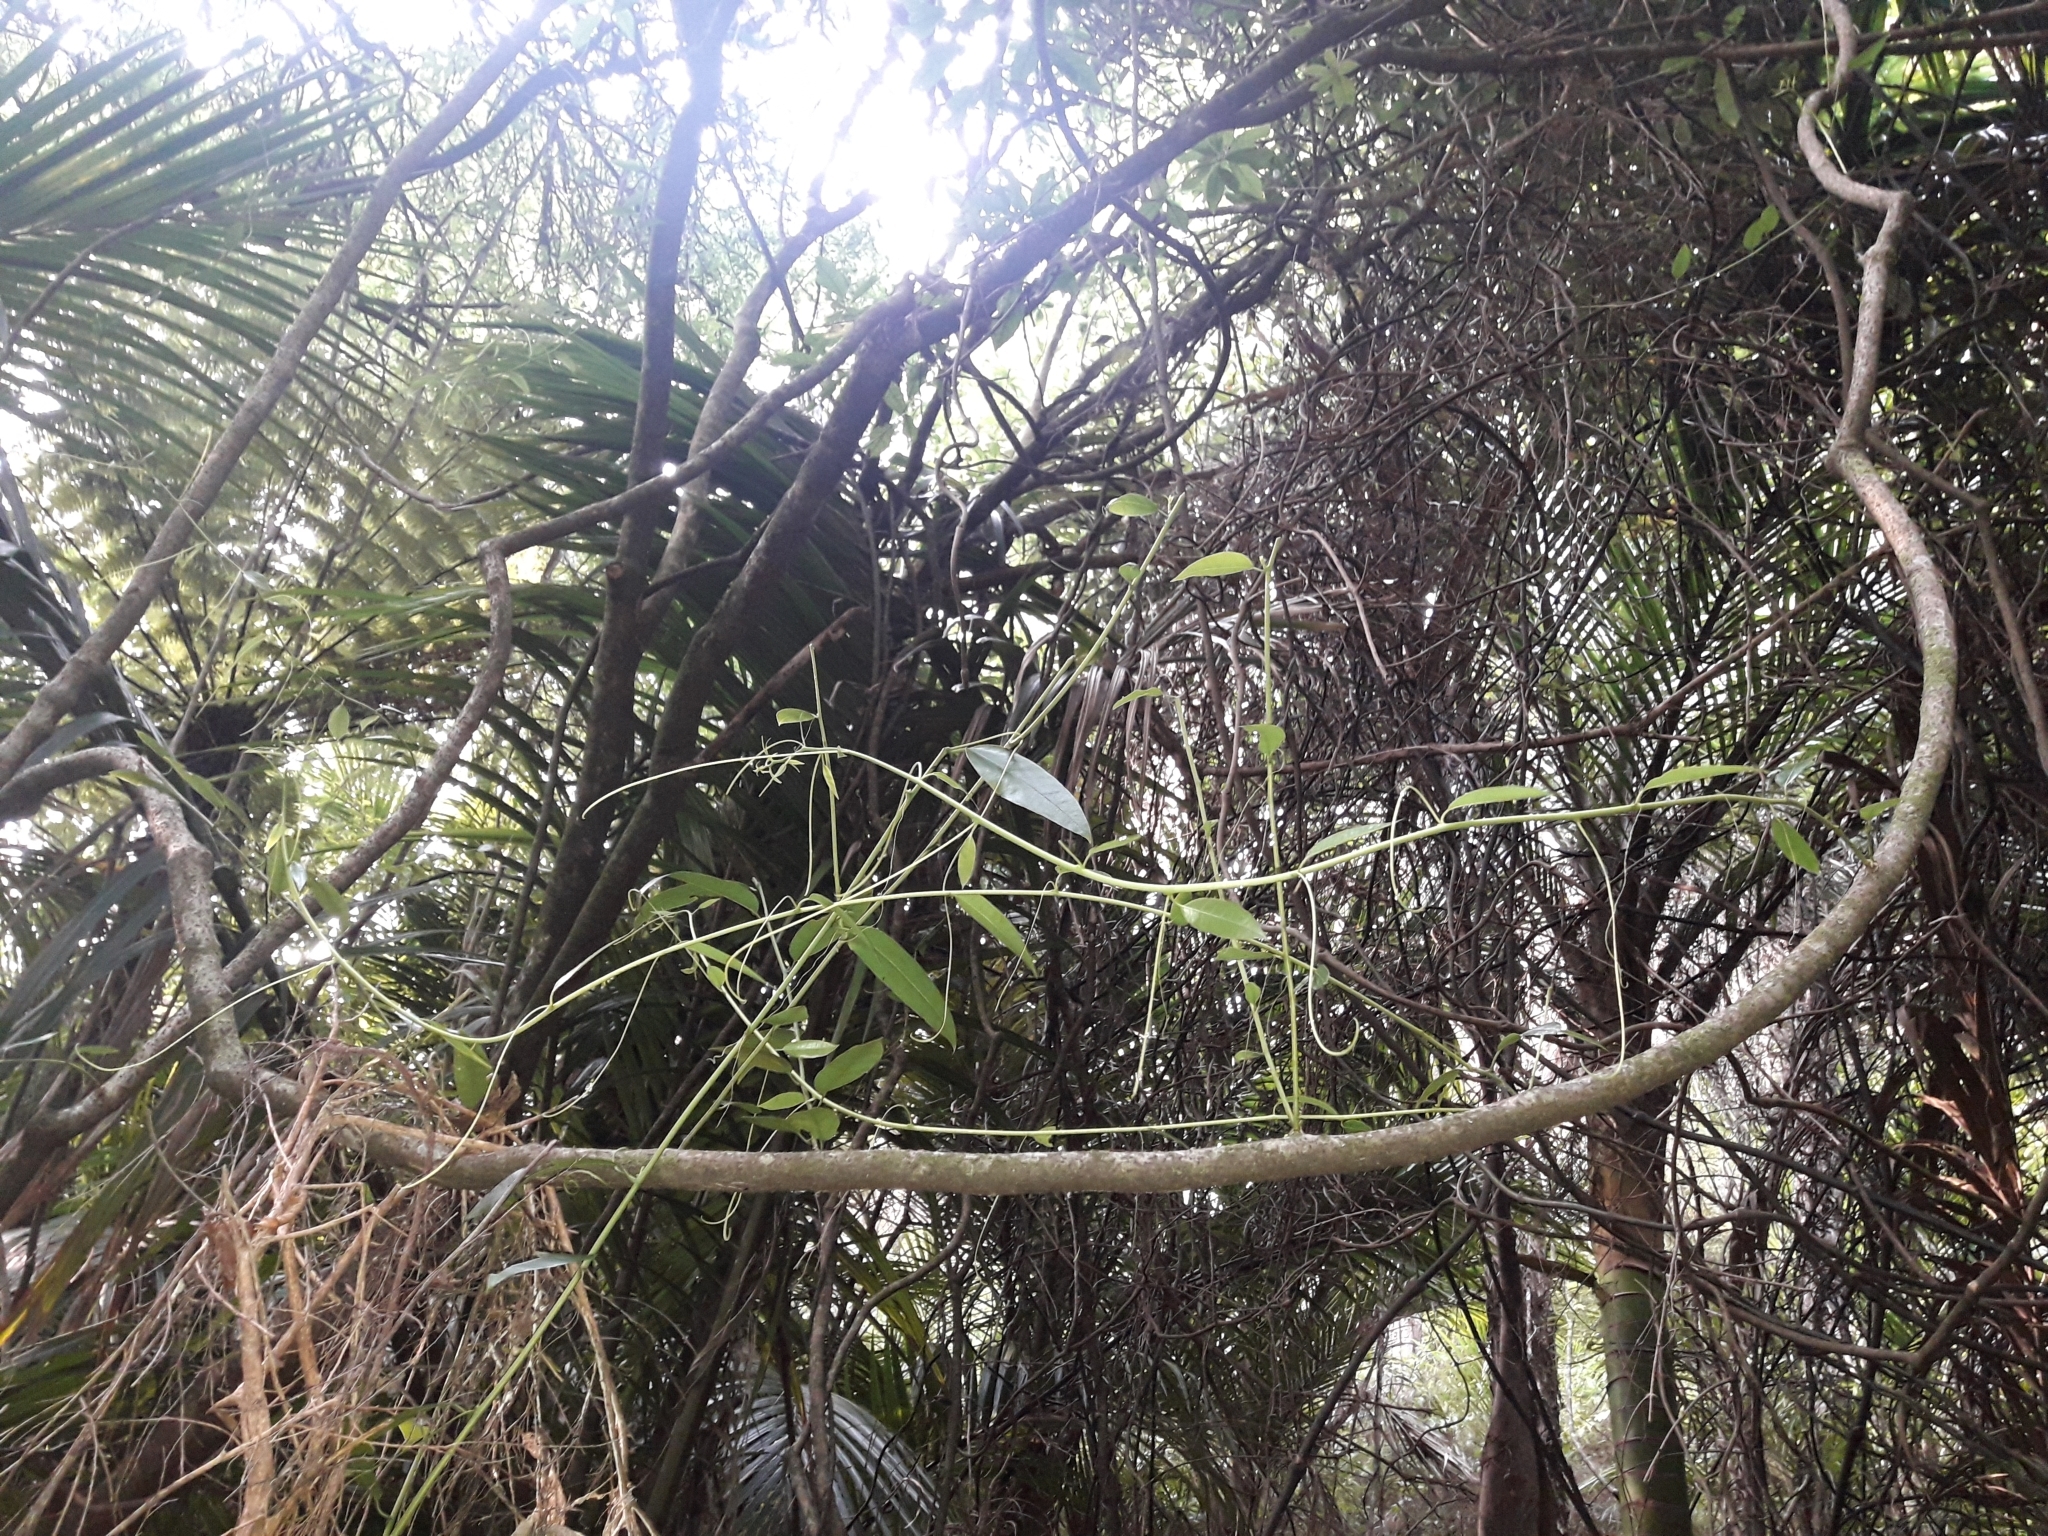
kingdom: Plantae
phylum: Tracheophyta
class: Magnoliopsida
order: Malpighiales
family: Passifloraceae
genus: Passiflora
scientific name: Passiflora tetrandra
